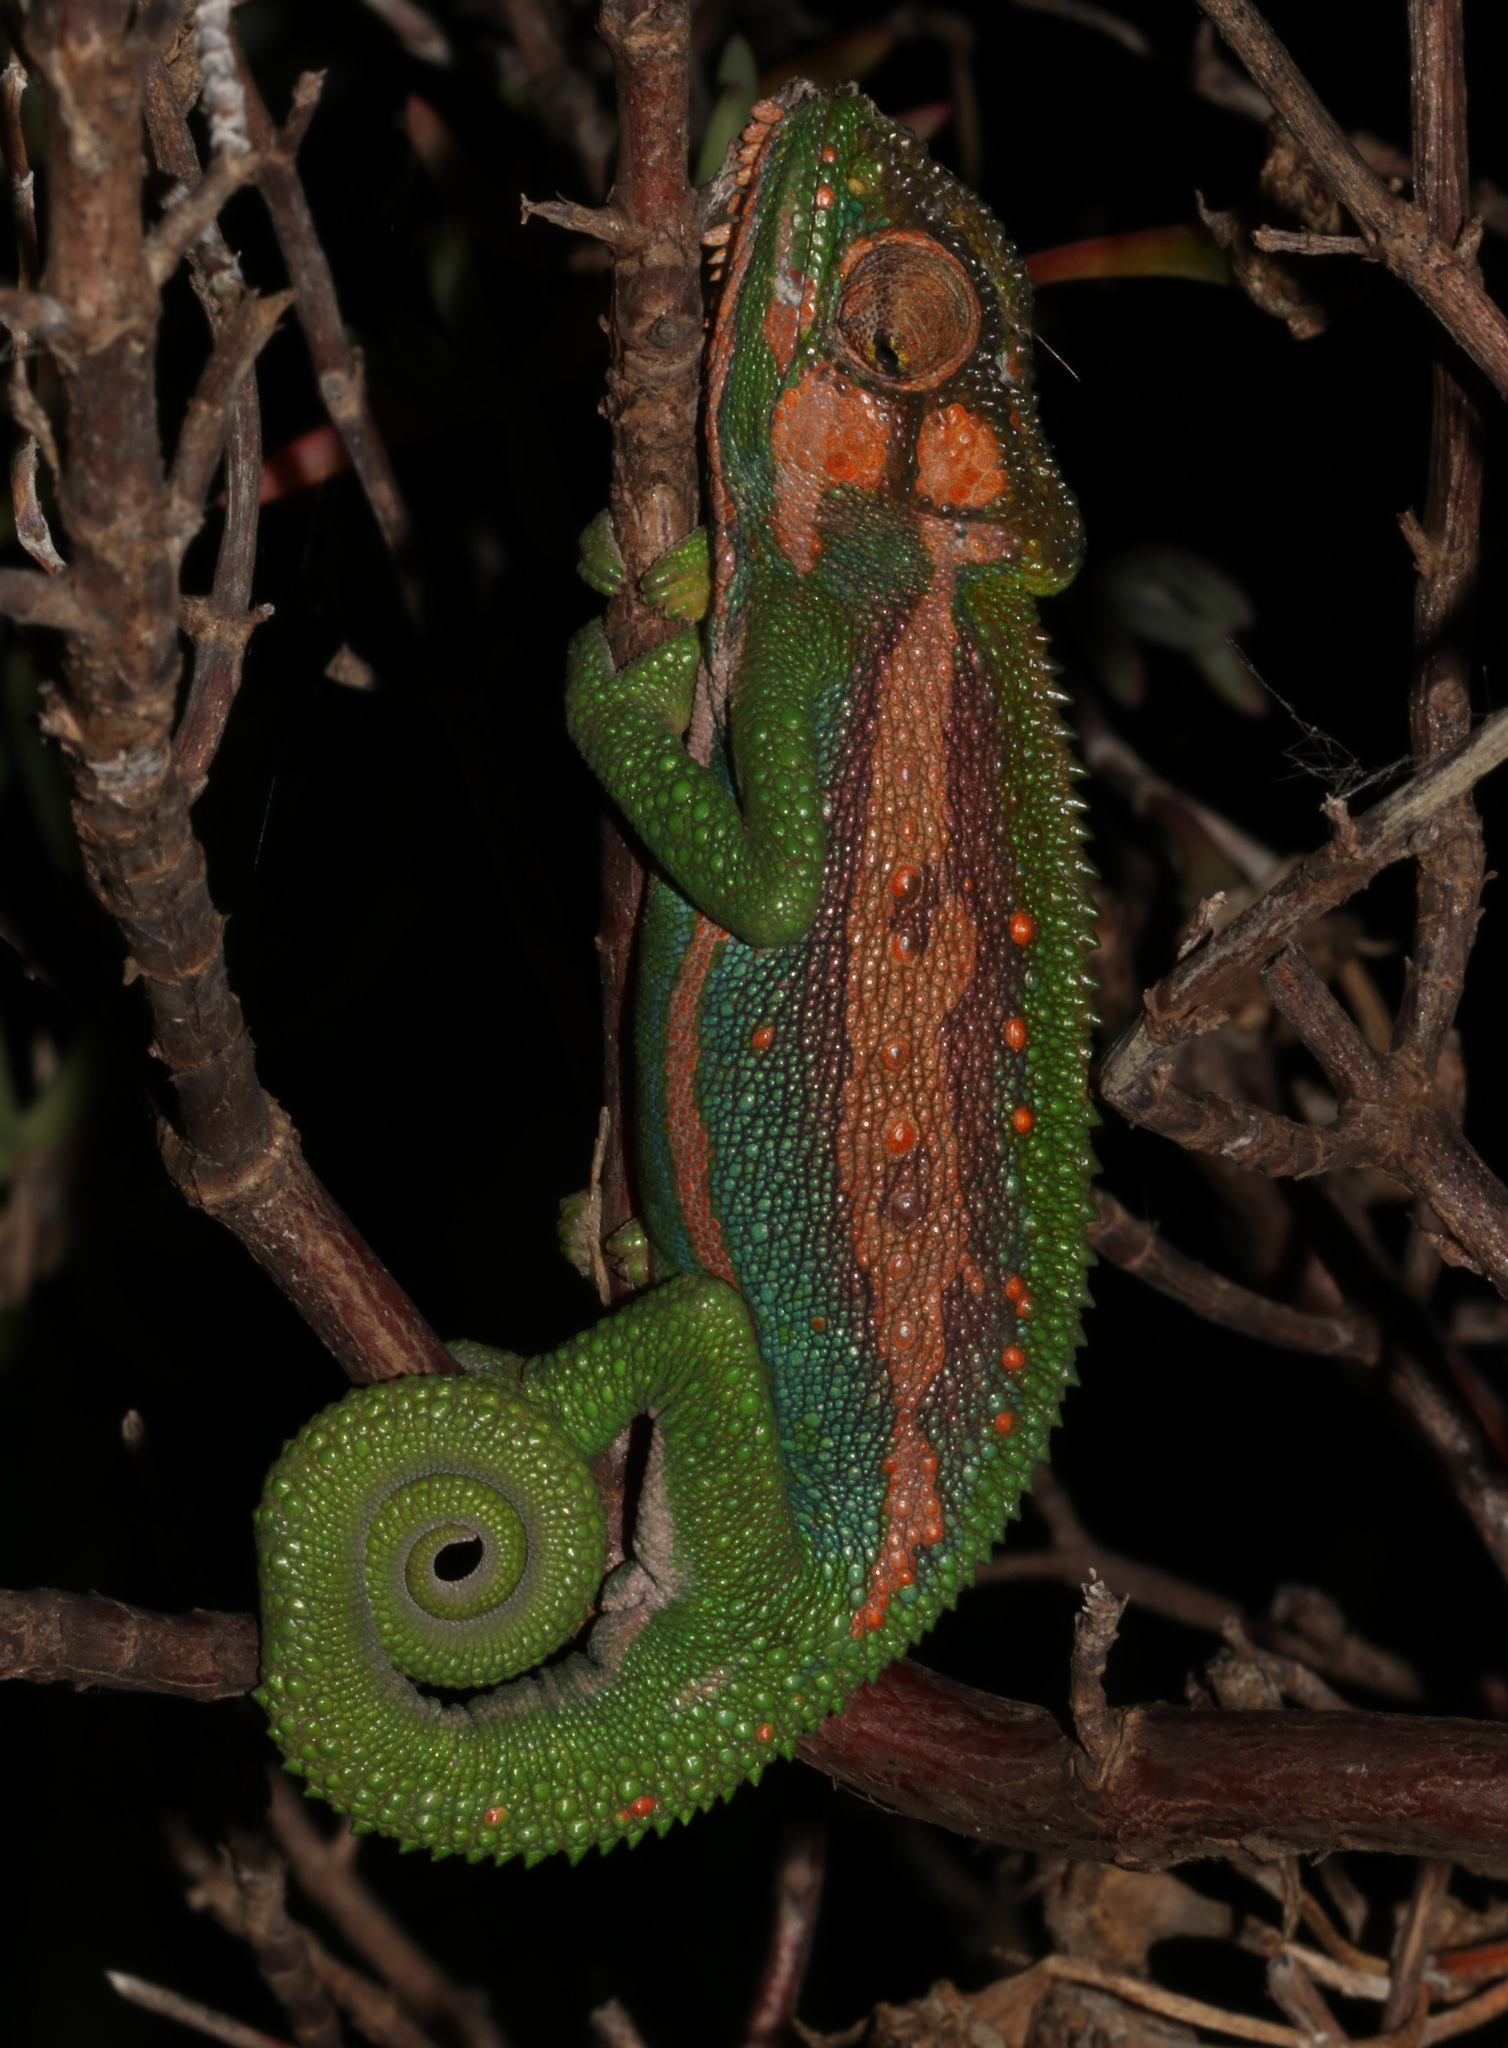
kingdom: Animalia
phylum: Chordata
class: Squamata
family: Chamaeleonidae
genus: Bradypodion
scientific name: Bradypodion pumilum
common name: Cape dwarf chameleon
